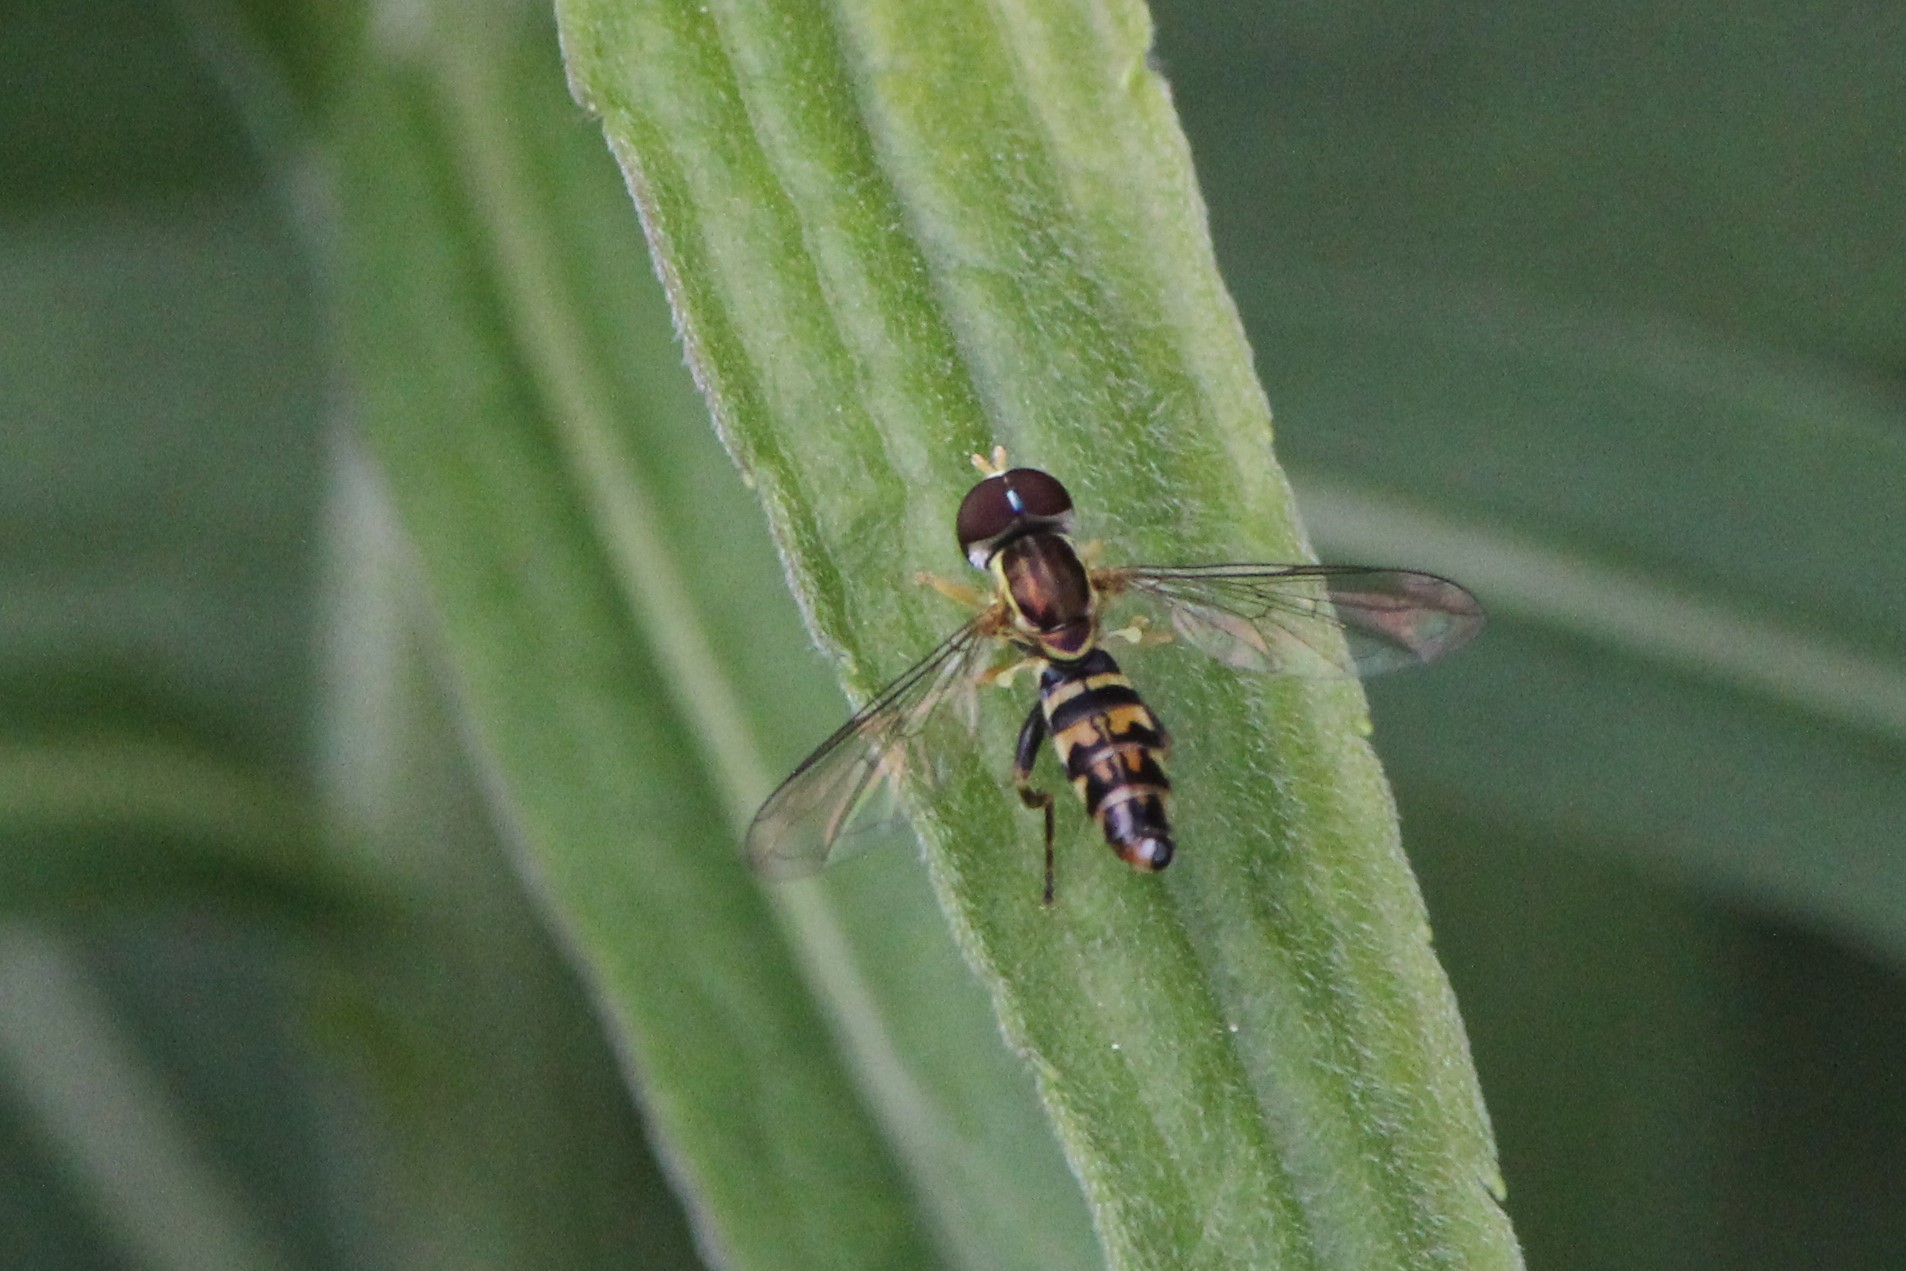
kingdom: Animalia
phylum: Arthropoda
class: Insecta
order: Diptera
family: Syrphidae
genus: Toxomerus
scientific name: Toxomerus geminatus
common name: Eastern calligrapher
